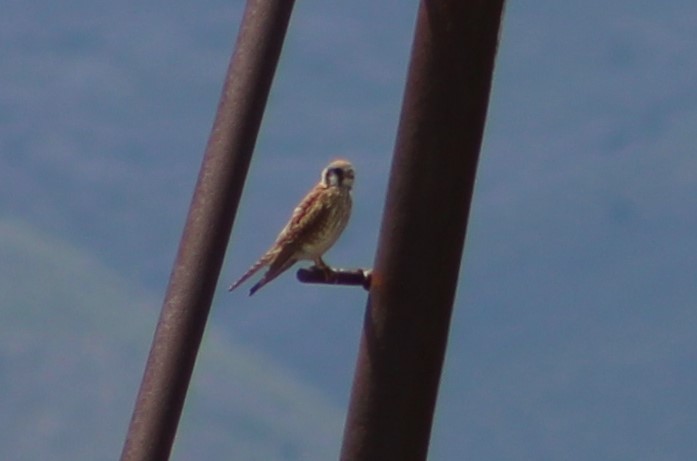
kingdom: Animalia
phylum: Chordata
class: Aves
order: Falconiformes
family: Falconidae
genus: Falco
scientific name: Falco sparverius
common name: American kestrel
